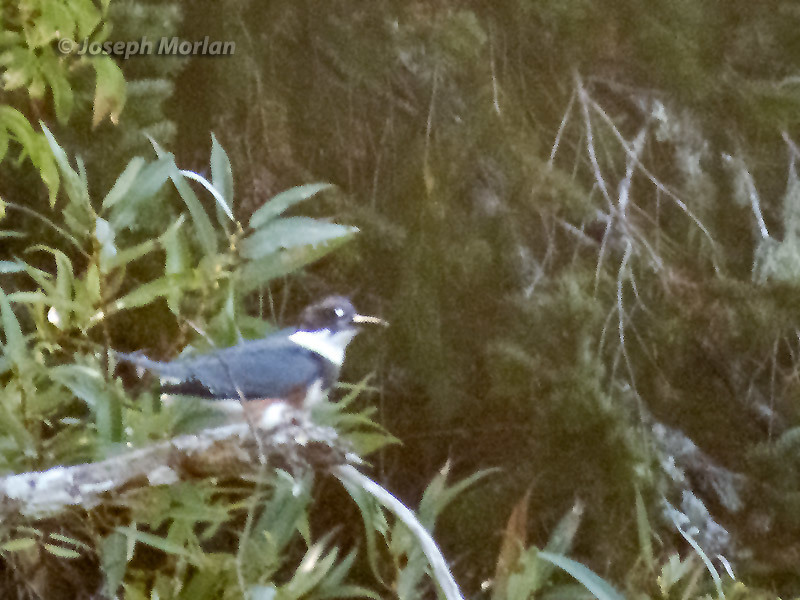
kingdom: Animalia
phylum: Chordata
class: Aves
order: Coraciiformes
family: Alcedinidae
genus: Megaceryle
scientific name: Megaceryle alcyon
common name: Belted kingfisher
